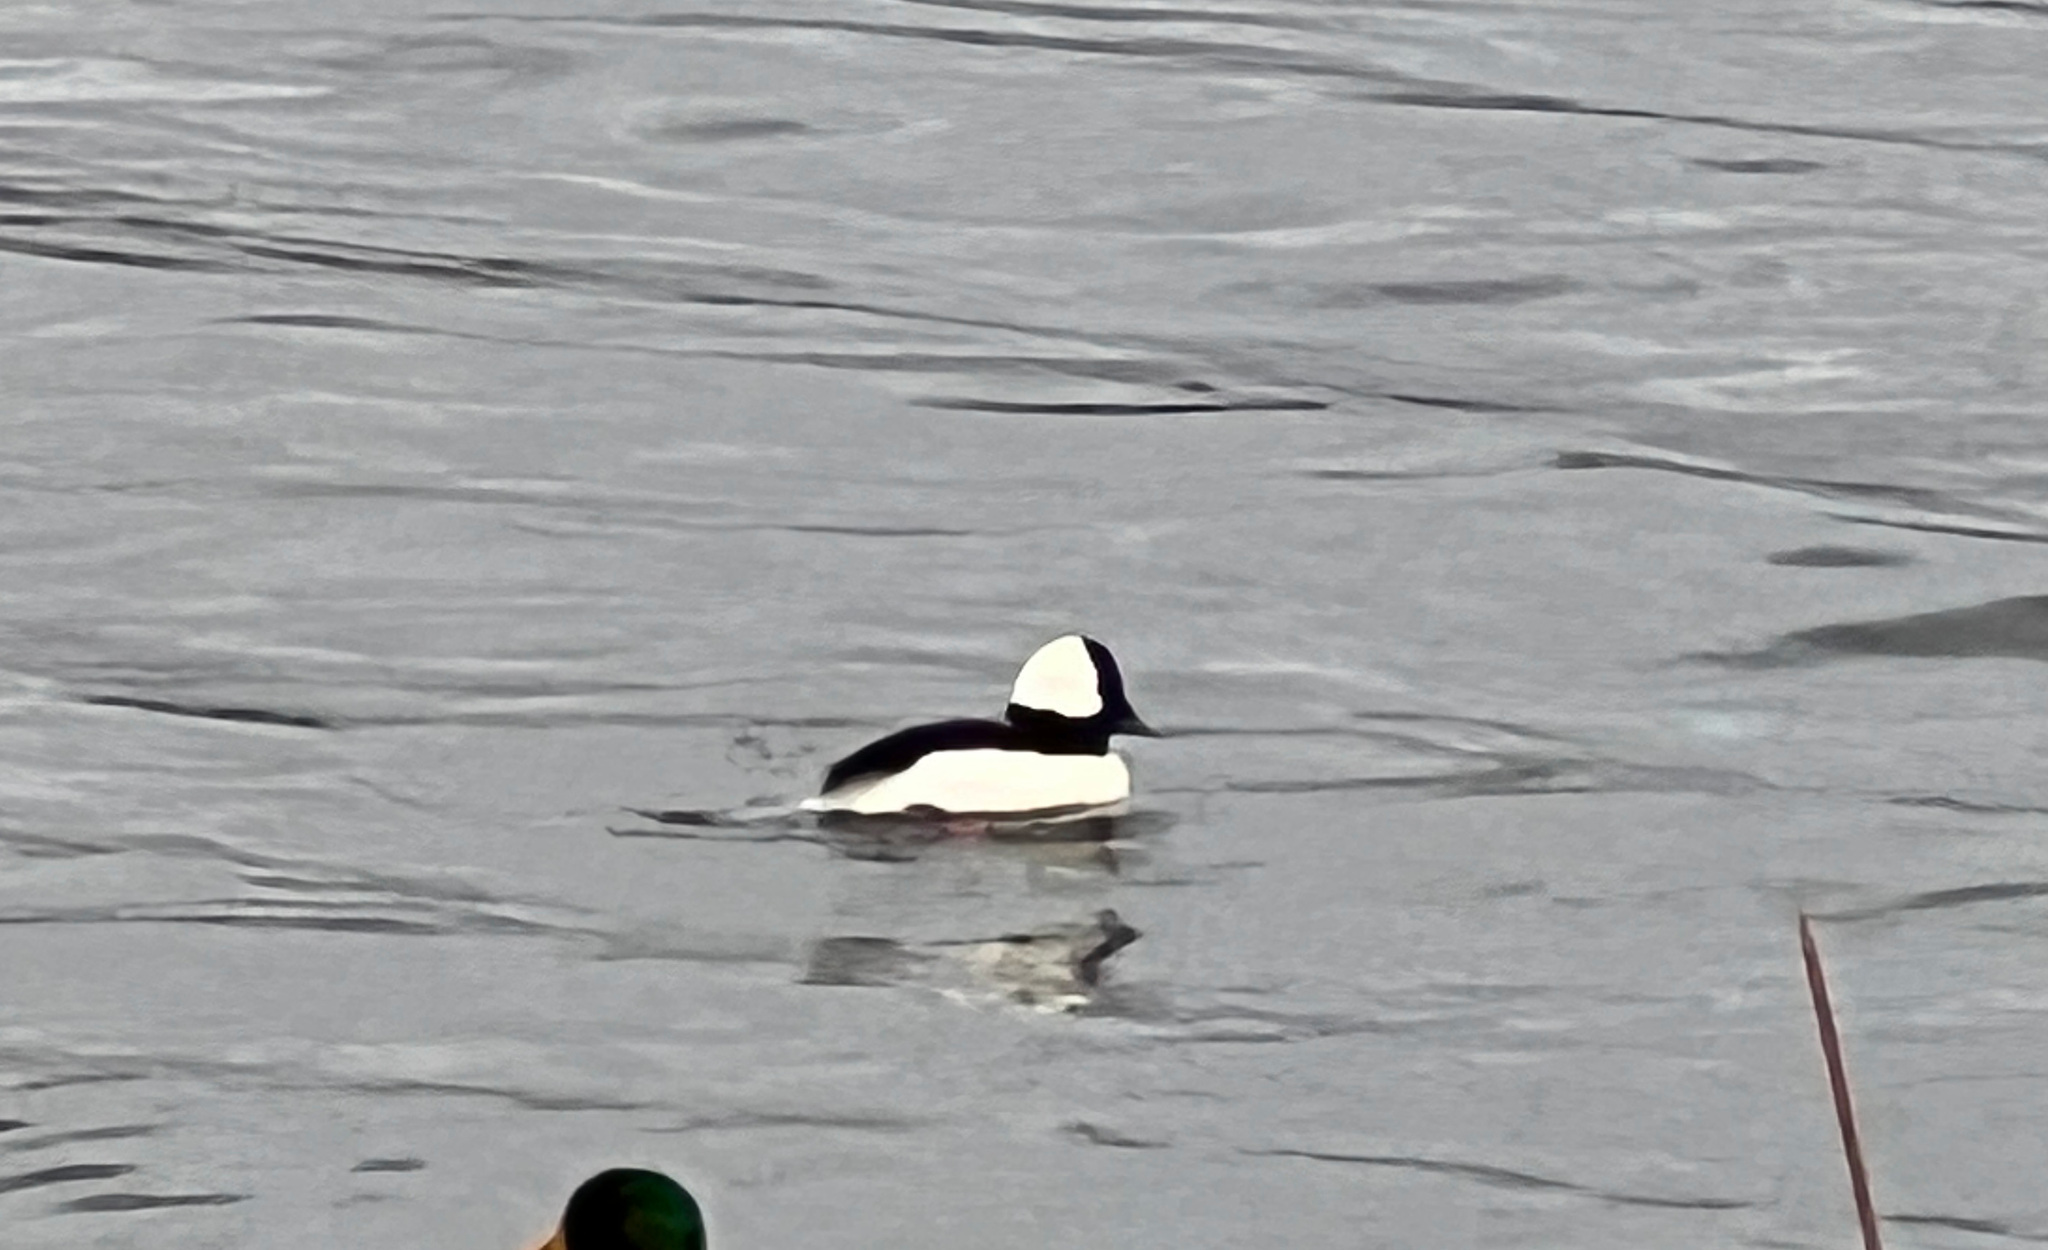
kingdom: Animalia
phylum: Chordata
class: Aves
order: Anseriformes
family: Anatidae
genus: Bucephala
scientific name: Bucephala albeola
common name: Bufflehead
